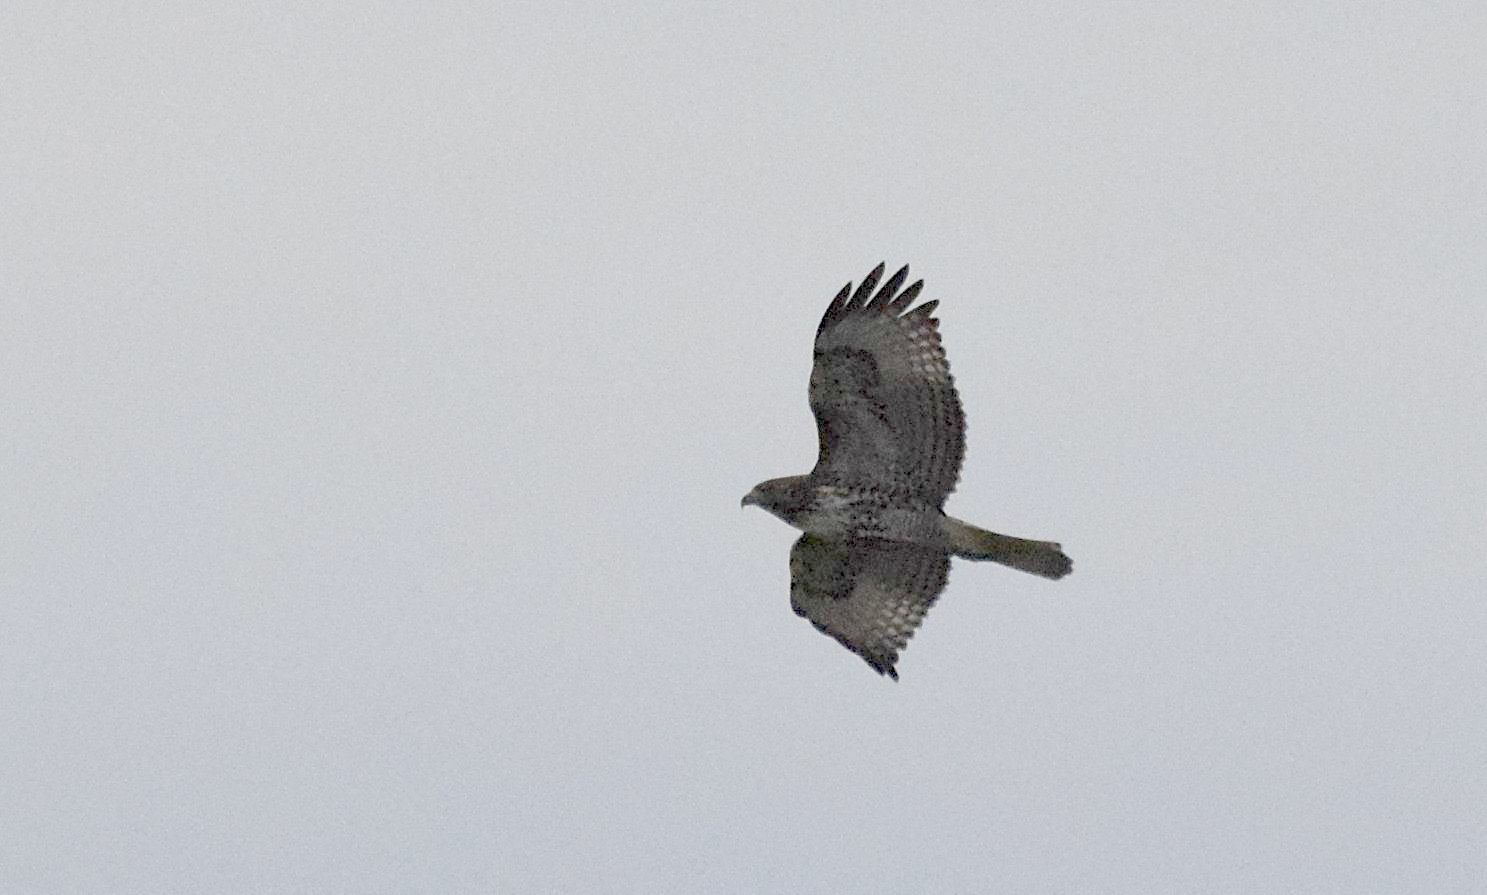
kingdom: Animalia
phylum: Chordata
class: Aves
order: Accipitriformes
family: Accipitridae
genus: Buteo
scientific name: Buteo jamaicensis
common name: Red-tailed hawk
